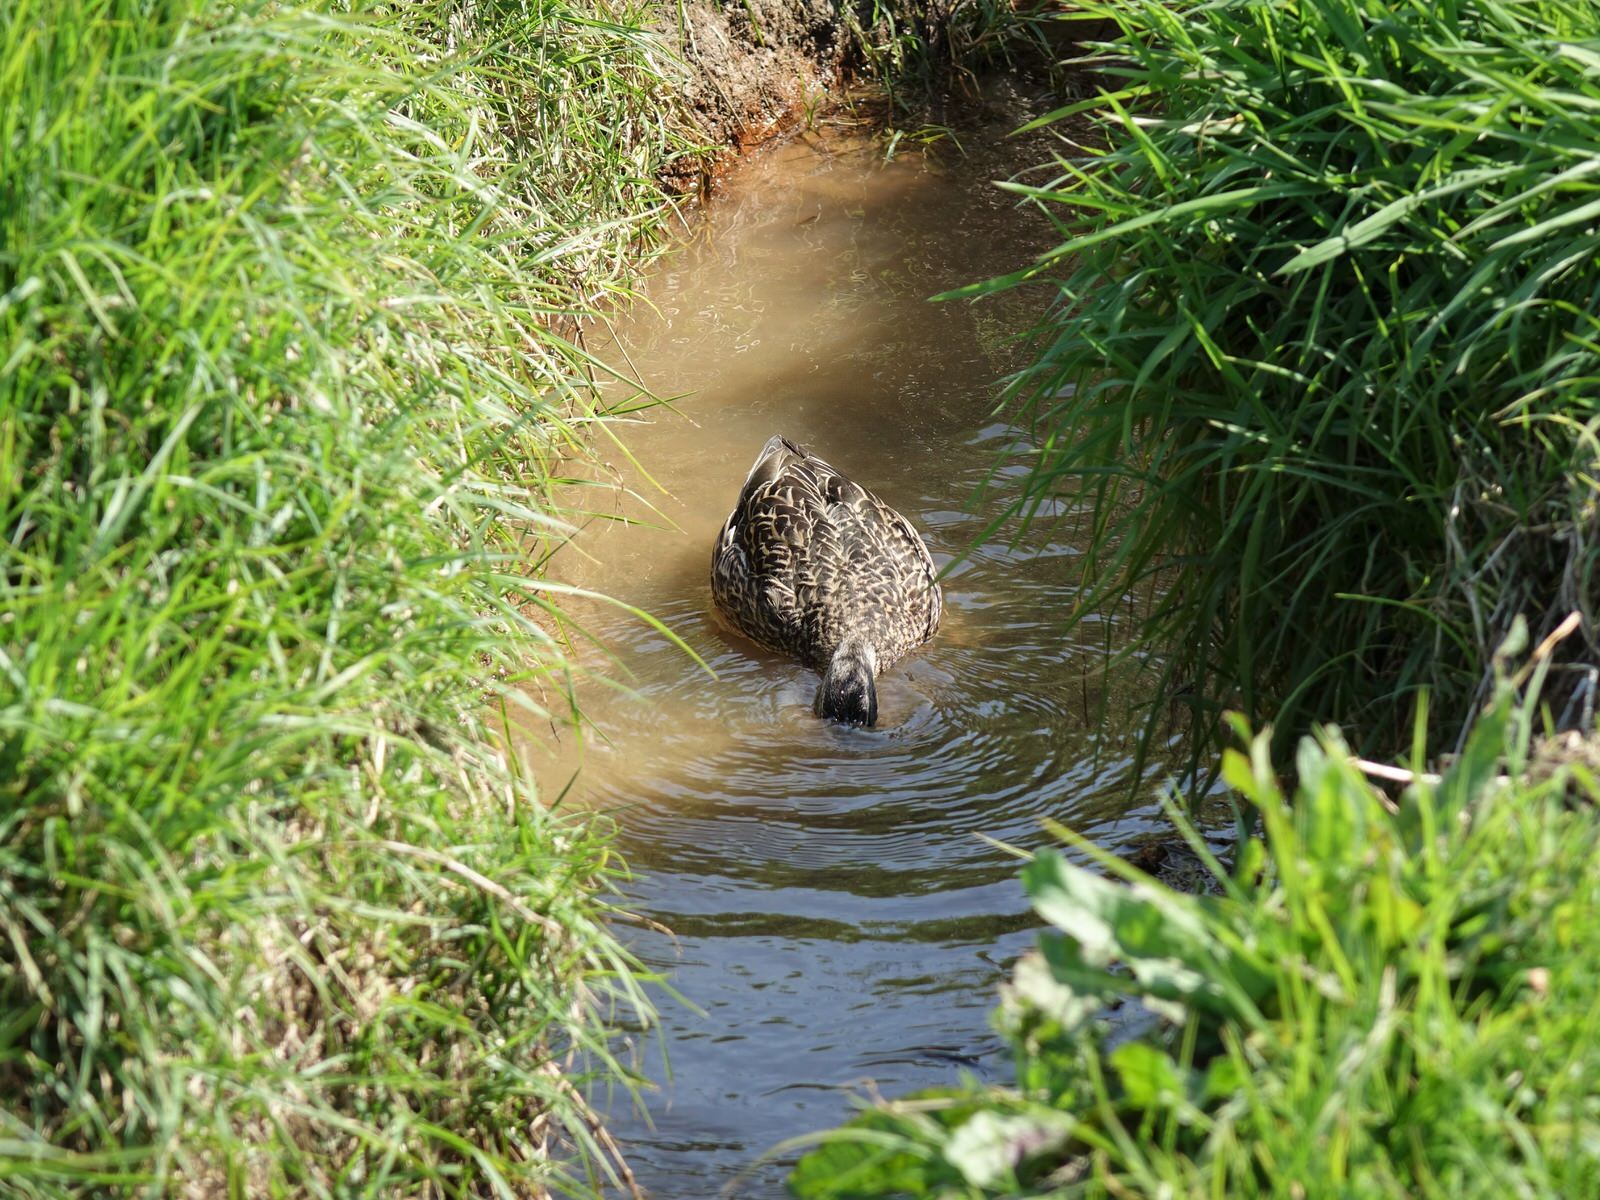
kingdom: Animalia
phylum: Chordata
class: Aves
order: Anseriformes
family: Anatidae
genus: Anas
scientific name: Anas platyrhynchos
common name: Mallard
